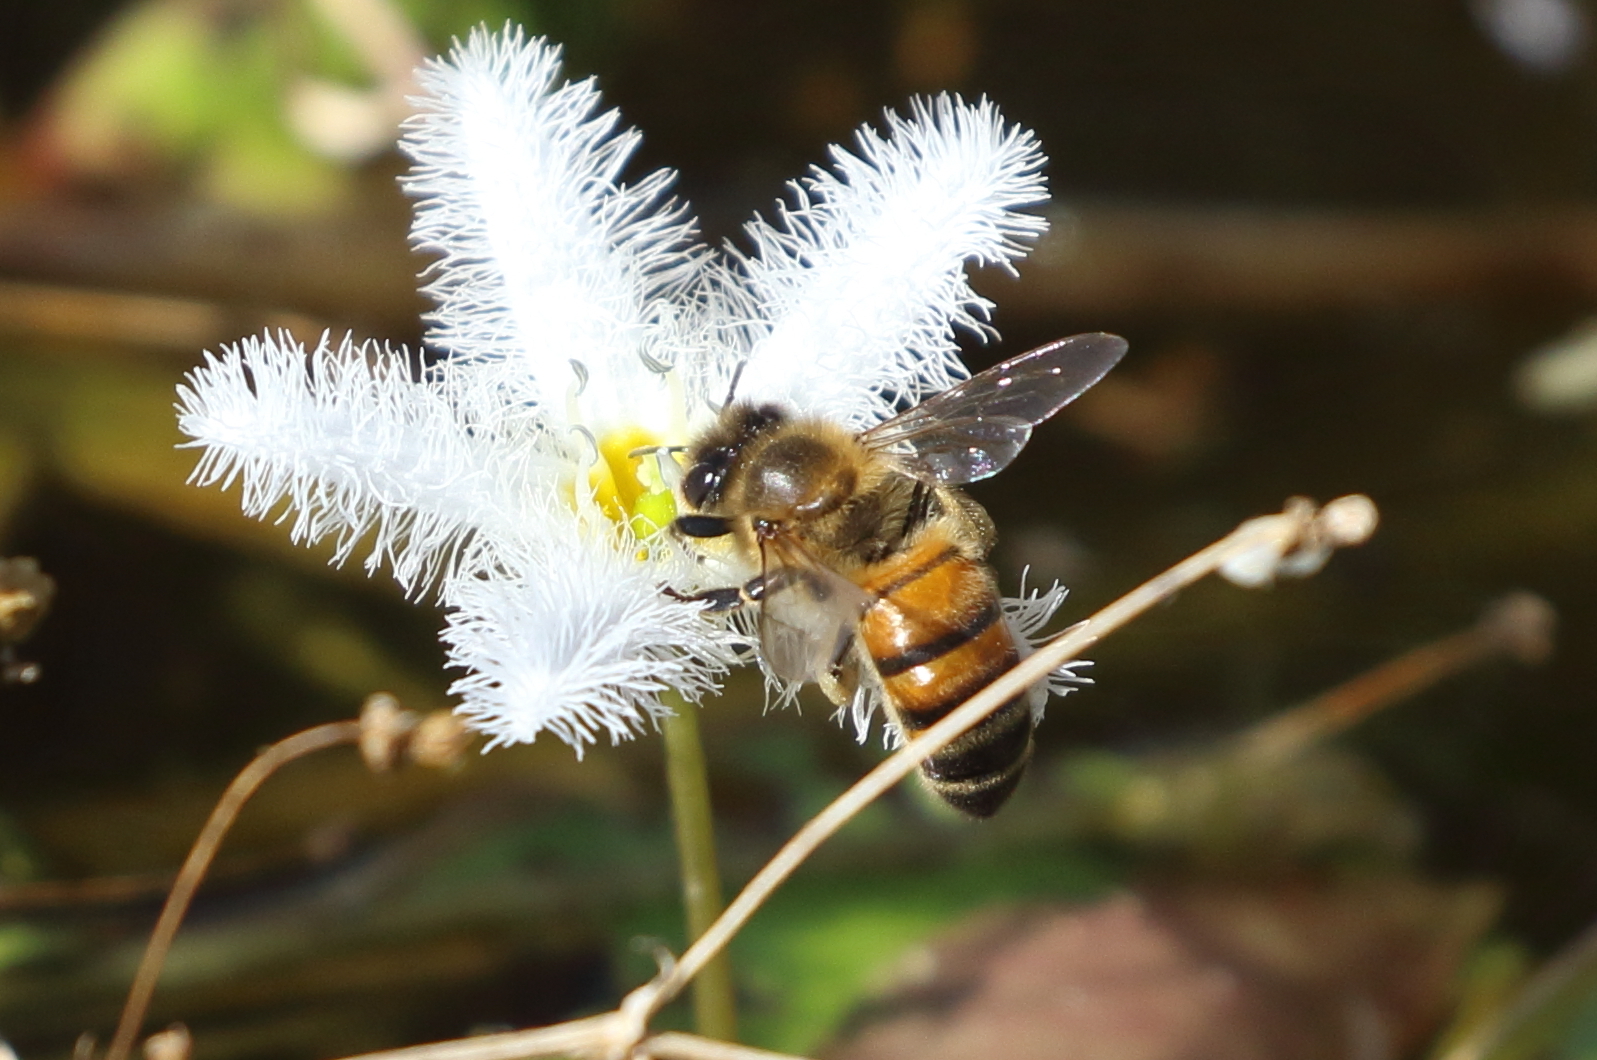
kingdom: Animalia
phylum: Arthropoda
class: Insecta
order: Hymenoptera
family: Apidae
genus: Apis
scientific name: Apis mellifera
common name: Honey bee
